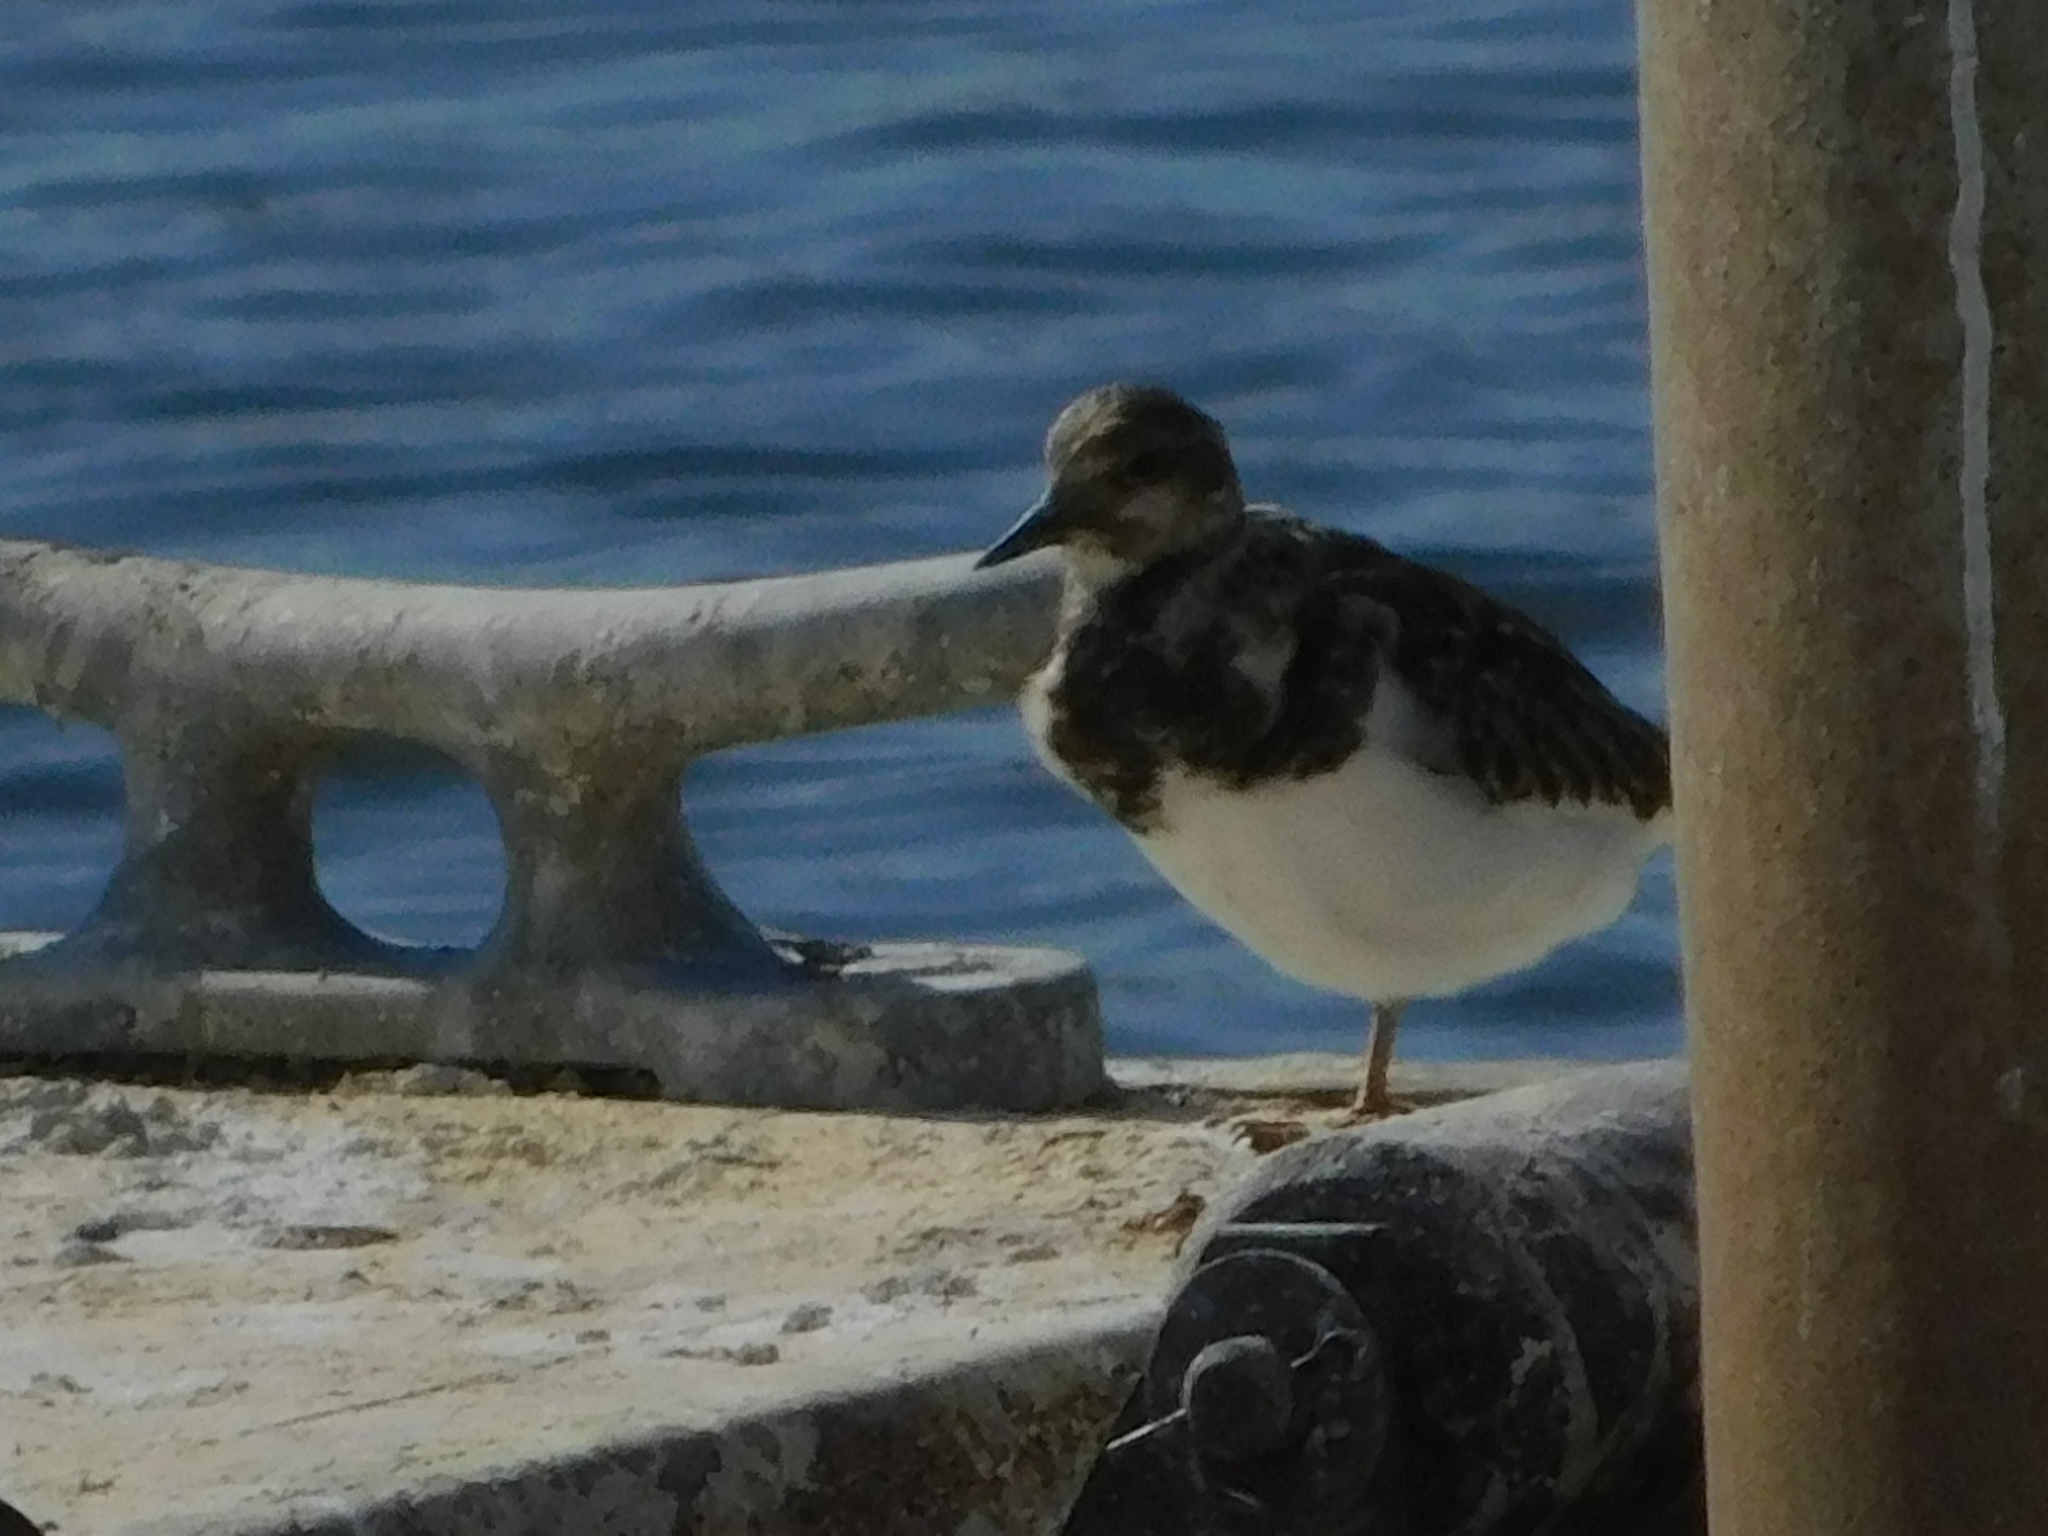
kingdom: Animalia
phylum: Chordata
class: Aves
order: Charadriiformes
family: Scolopacidae
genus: Arenaria
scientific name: Arenaria interpres
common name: Ruddy turnstone
